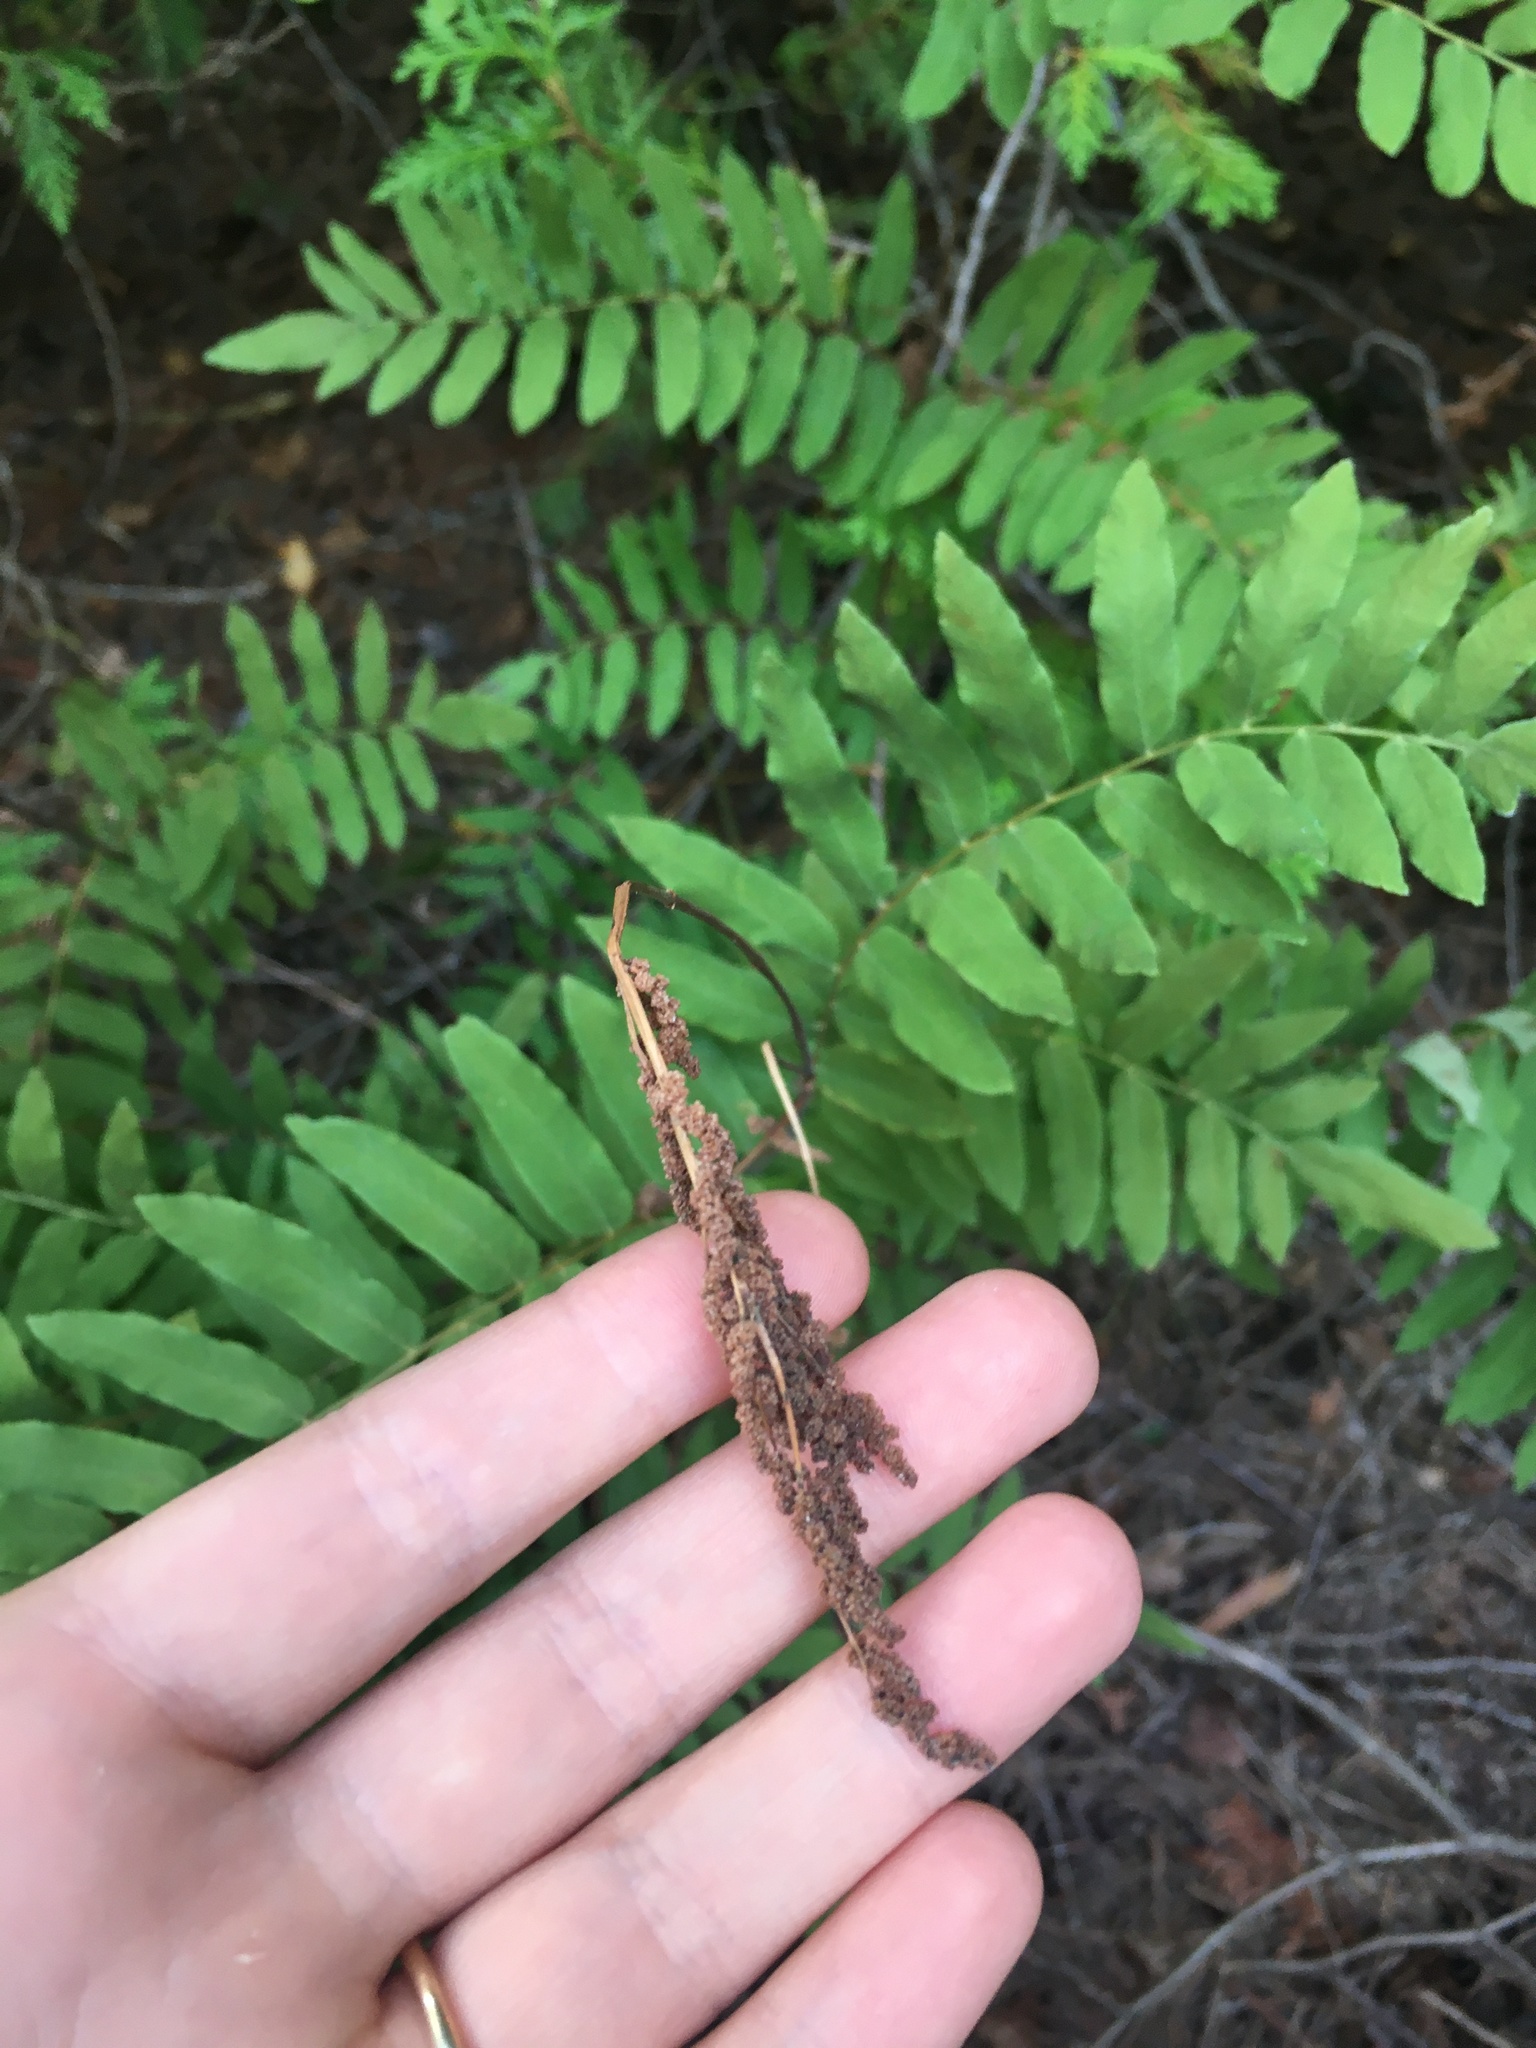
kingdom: Plantae
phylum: Tracheophyta
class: Polypodiopsida
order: Osmundales
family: Osmundaceae
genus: Osmunda
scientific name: Osmunda spectabilis
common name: American royal fern
